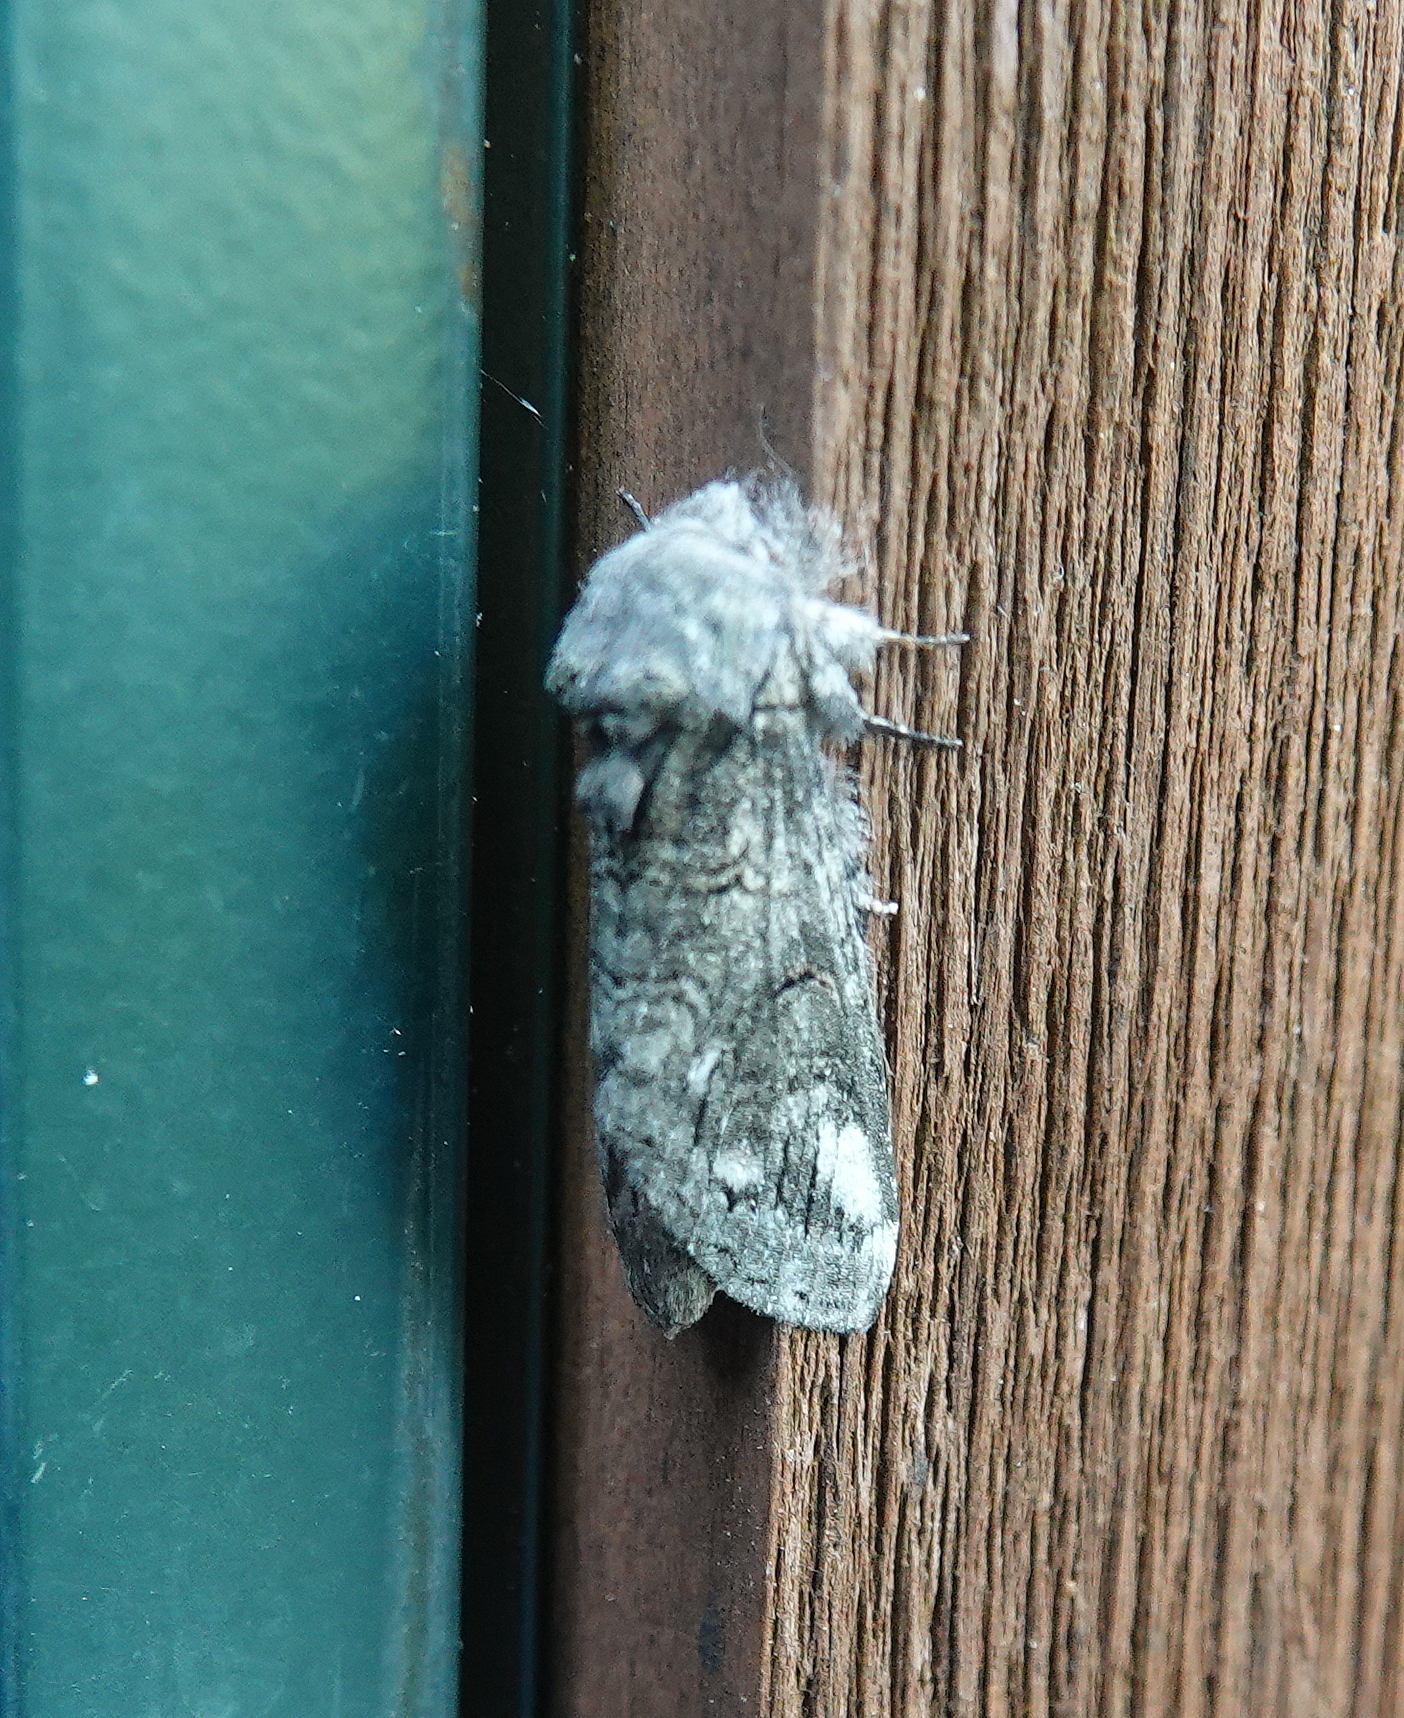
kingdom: Animalia
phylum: Arthropoda
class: Insecta
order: Lepidoptera
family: Notodontidae
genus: Heterocampa
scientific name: Heterocampa obliqua
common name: Oblique heterocampa
